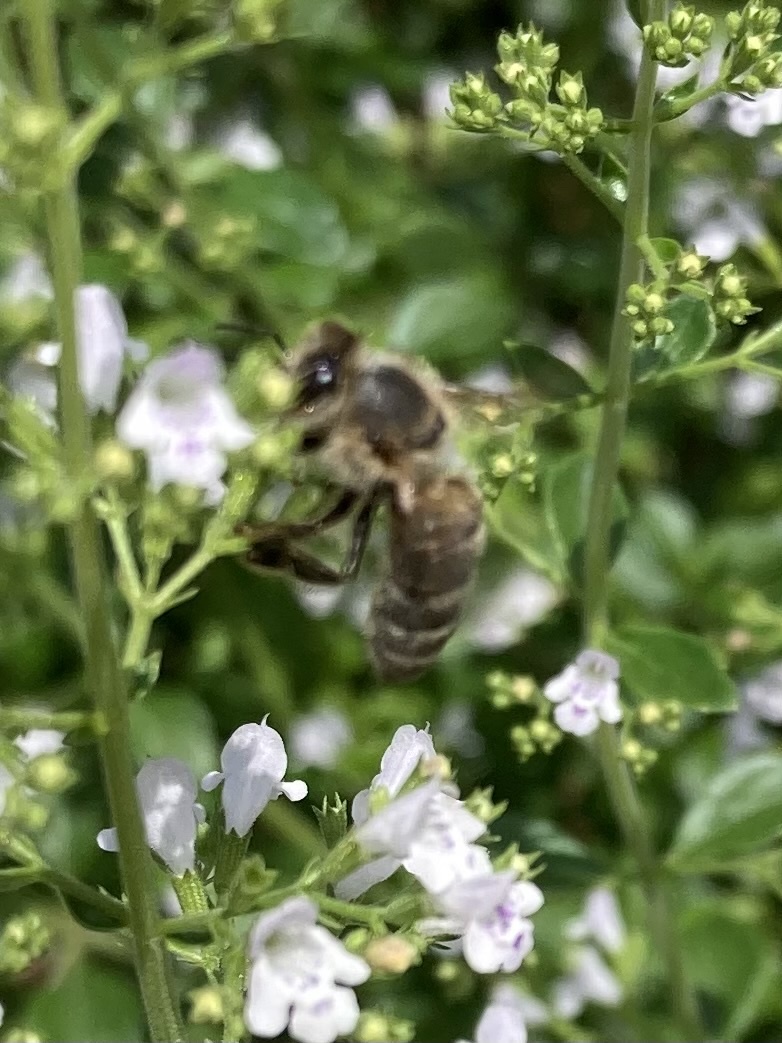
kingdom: Animalia
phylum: Arthropoda
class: Insecta
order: Hymenoptera
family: Apidae
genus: Bombus
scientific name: Bombus rufocinctus
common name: Red-belted bumble bee
